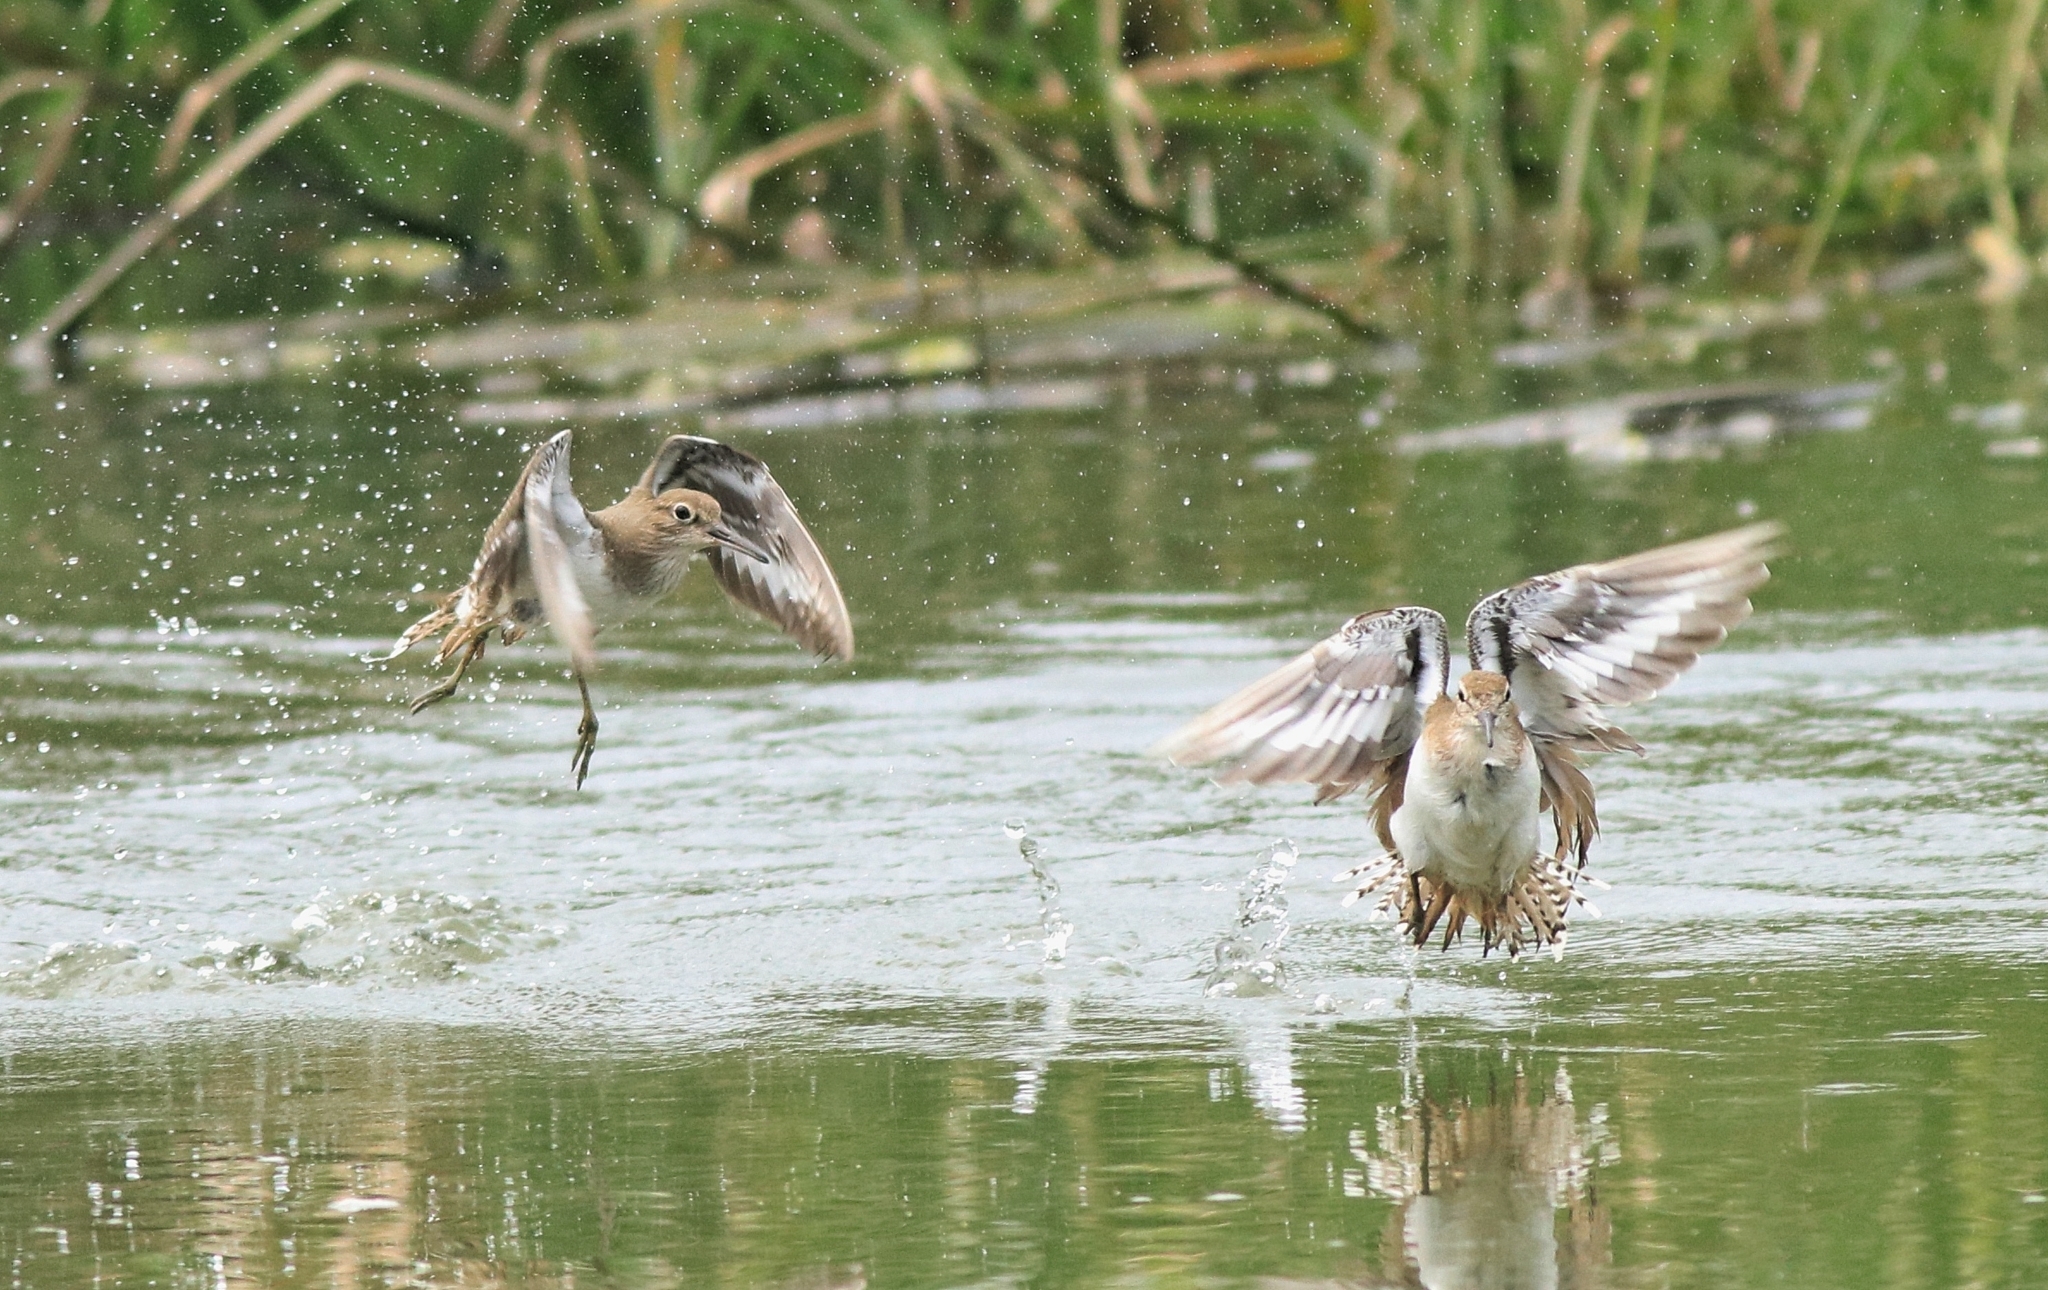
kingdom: Animalia
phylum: Chordata
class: Aves
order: Charadriiformes
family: Scolopacidae
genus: Actitis
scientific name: Actitis hypoleucos
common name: Common sandpiper
